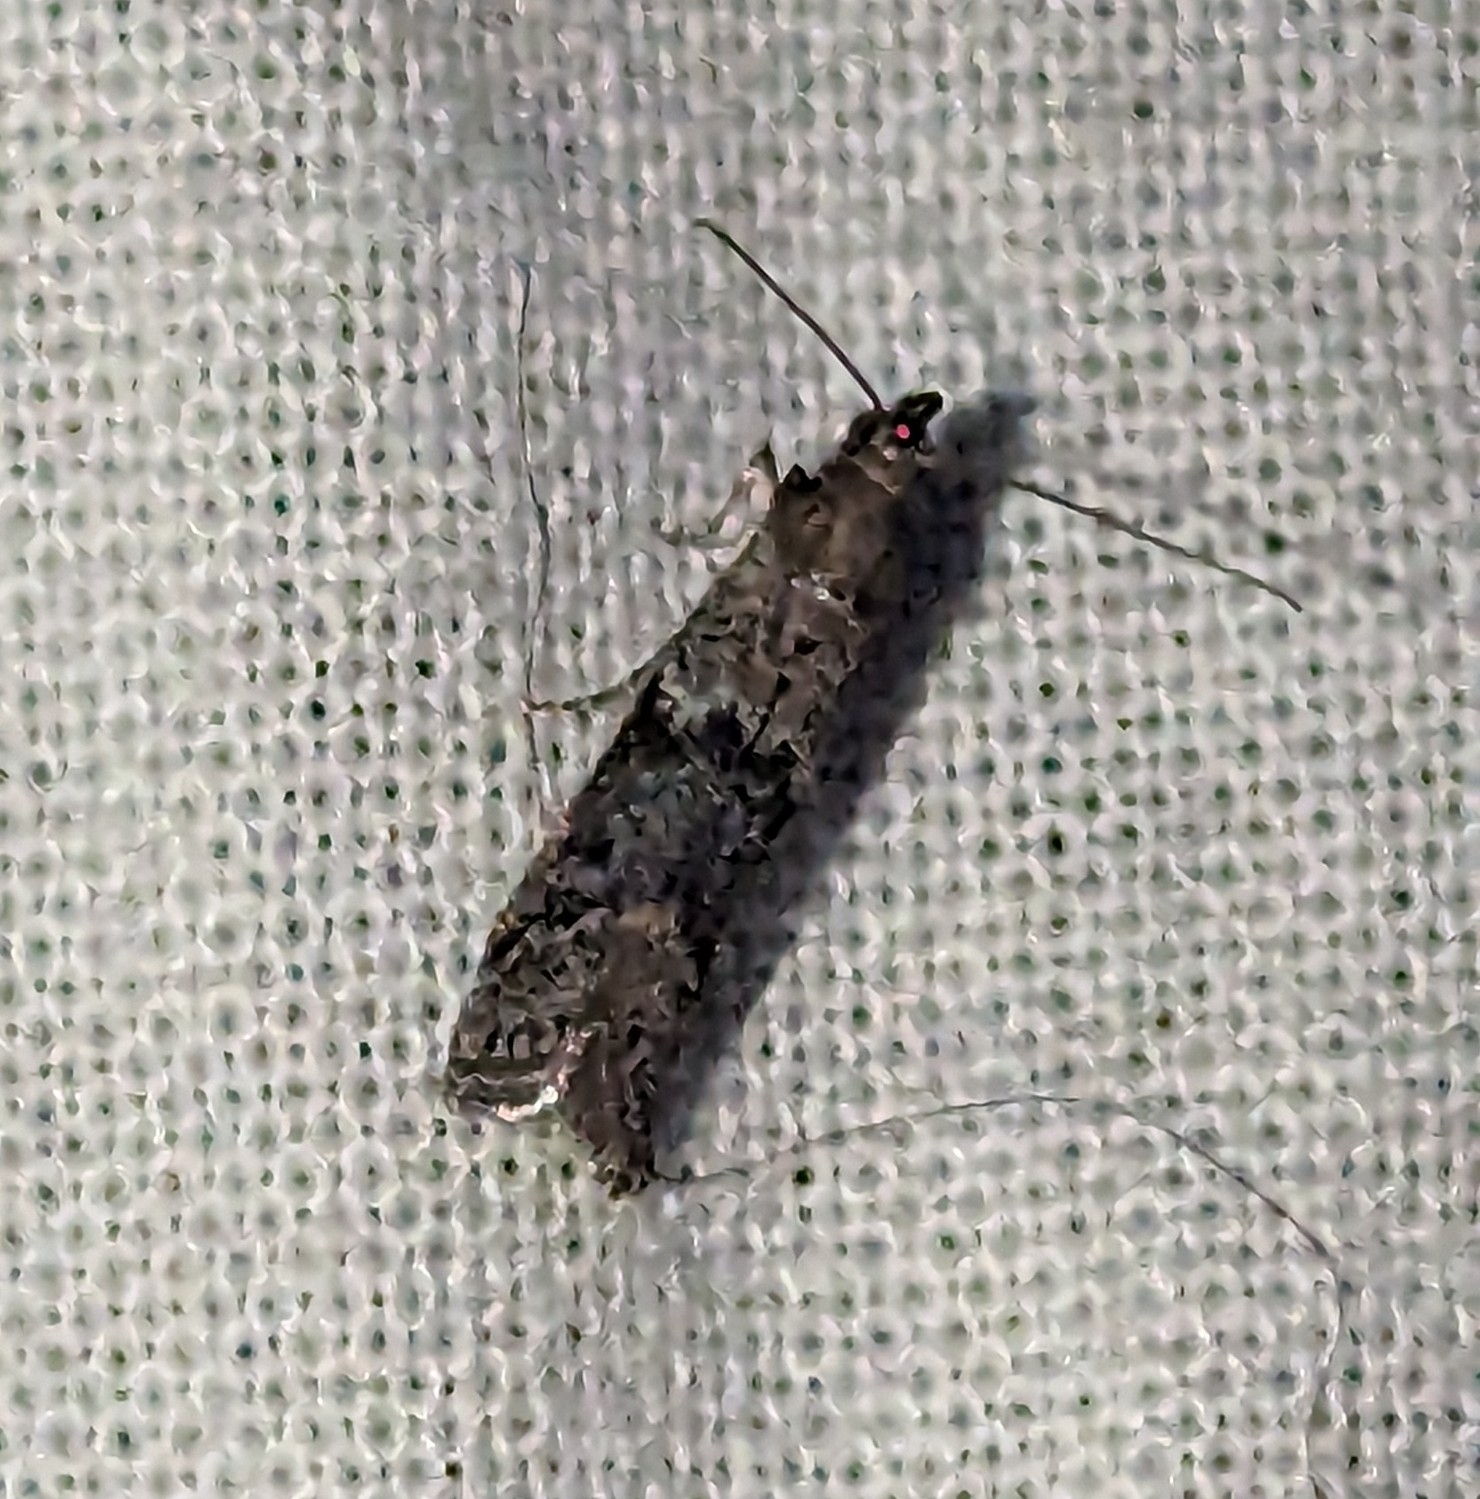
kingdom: Animalia
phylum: Arthropoda
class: Insecta
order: Lepidoptera
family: Pyralidae
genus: Ephestiodes
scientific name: Ephestiodes gilvescentella
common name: Moth
